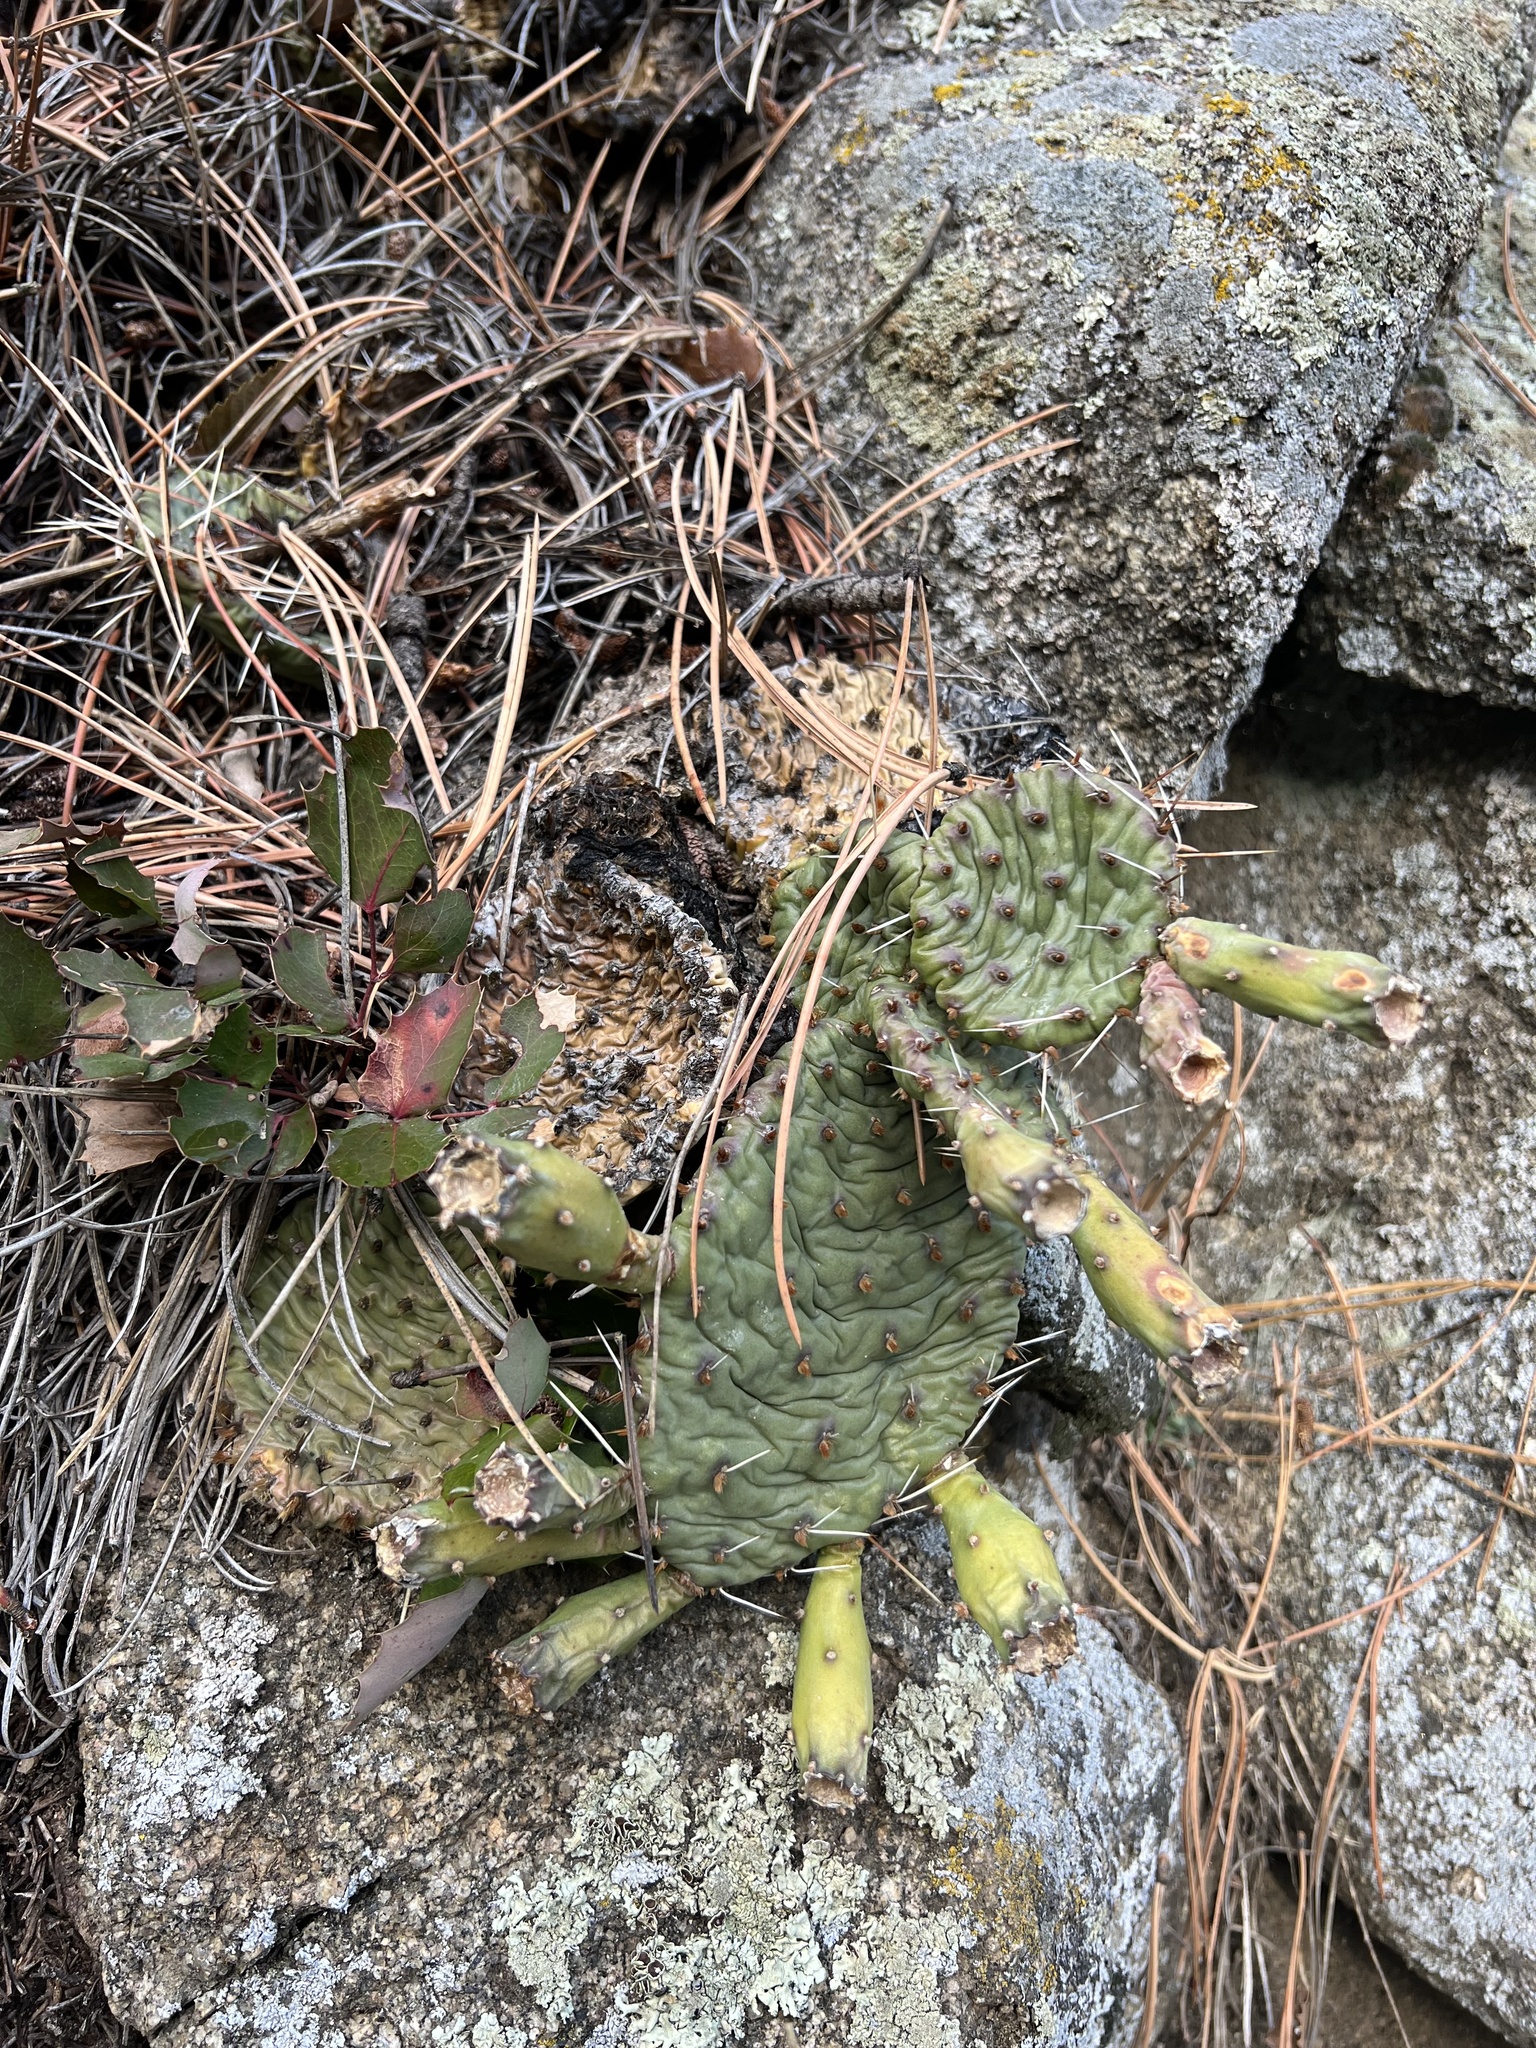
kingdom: Plantae
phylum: Tracheophyta
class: Magnoliopsida
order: Caryophyllales
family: Cactaceae
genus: Opuntia
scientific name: Opuntia macrorhiza
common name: Grassland pricklypear
